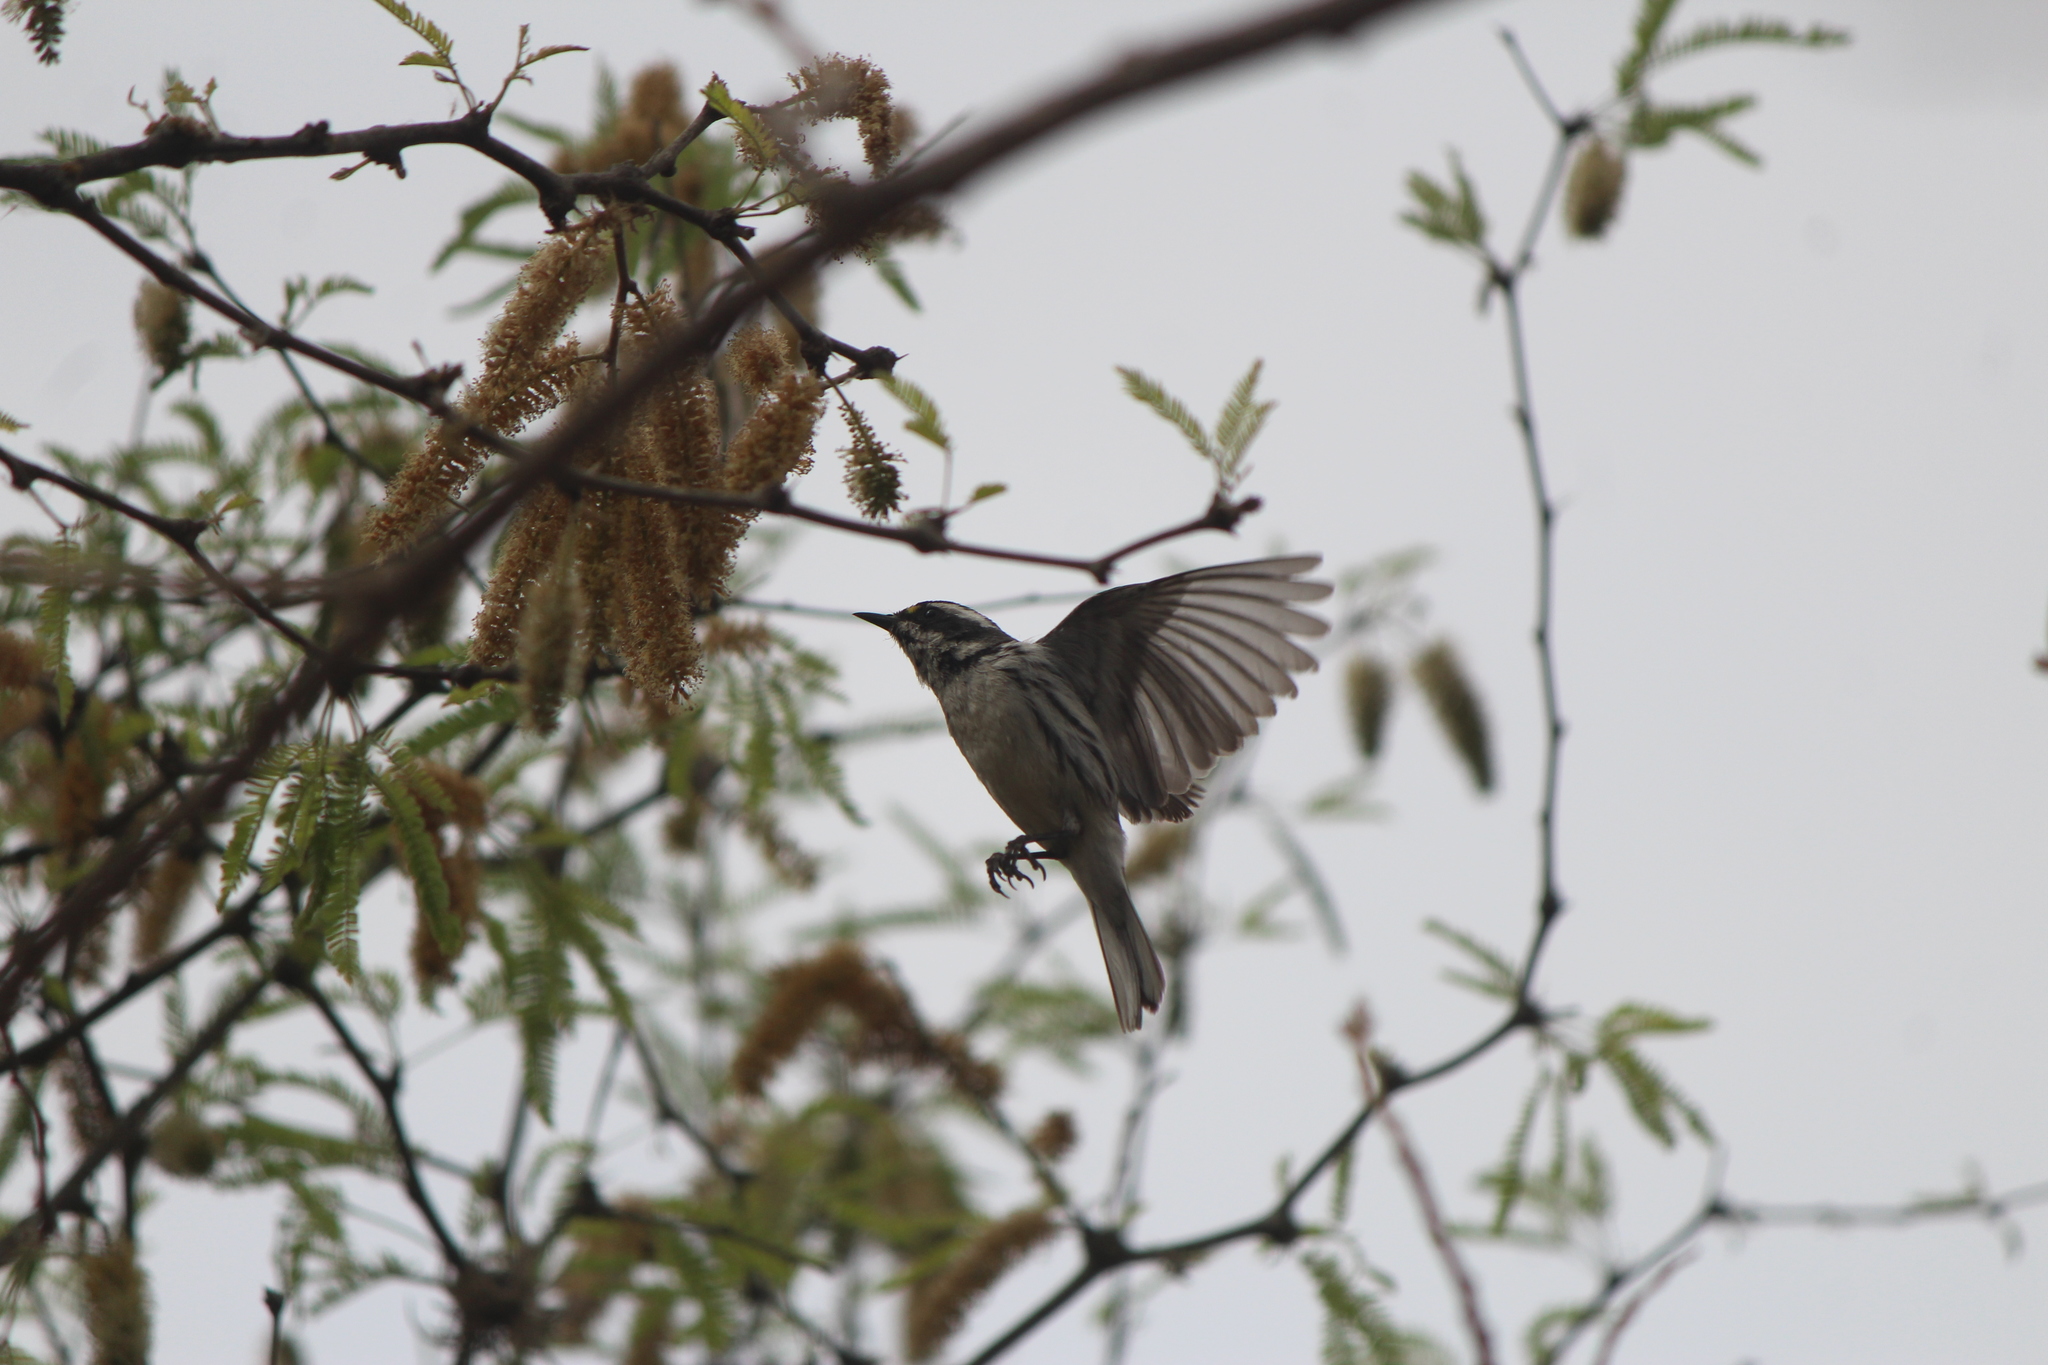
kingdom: Animalia
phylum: Chordata
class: Aves
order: Passeriformes
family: Parulidae
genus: Setophaga
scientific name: Setophaga nigrescens
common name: Black-throated gray warbler
